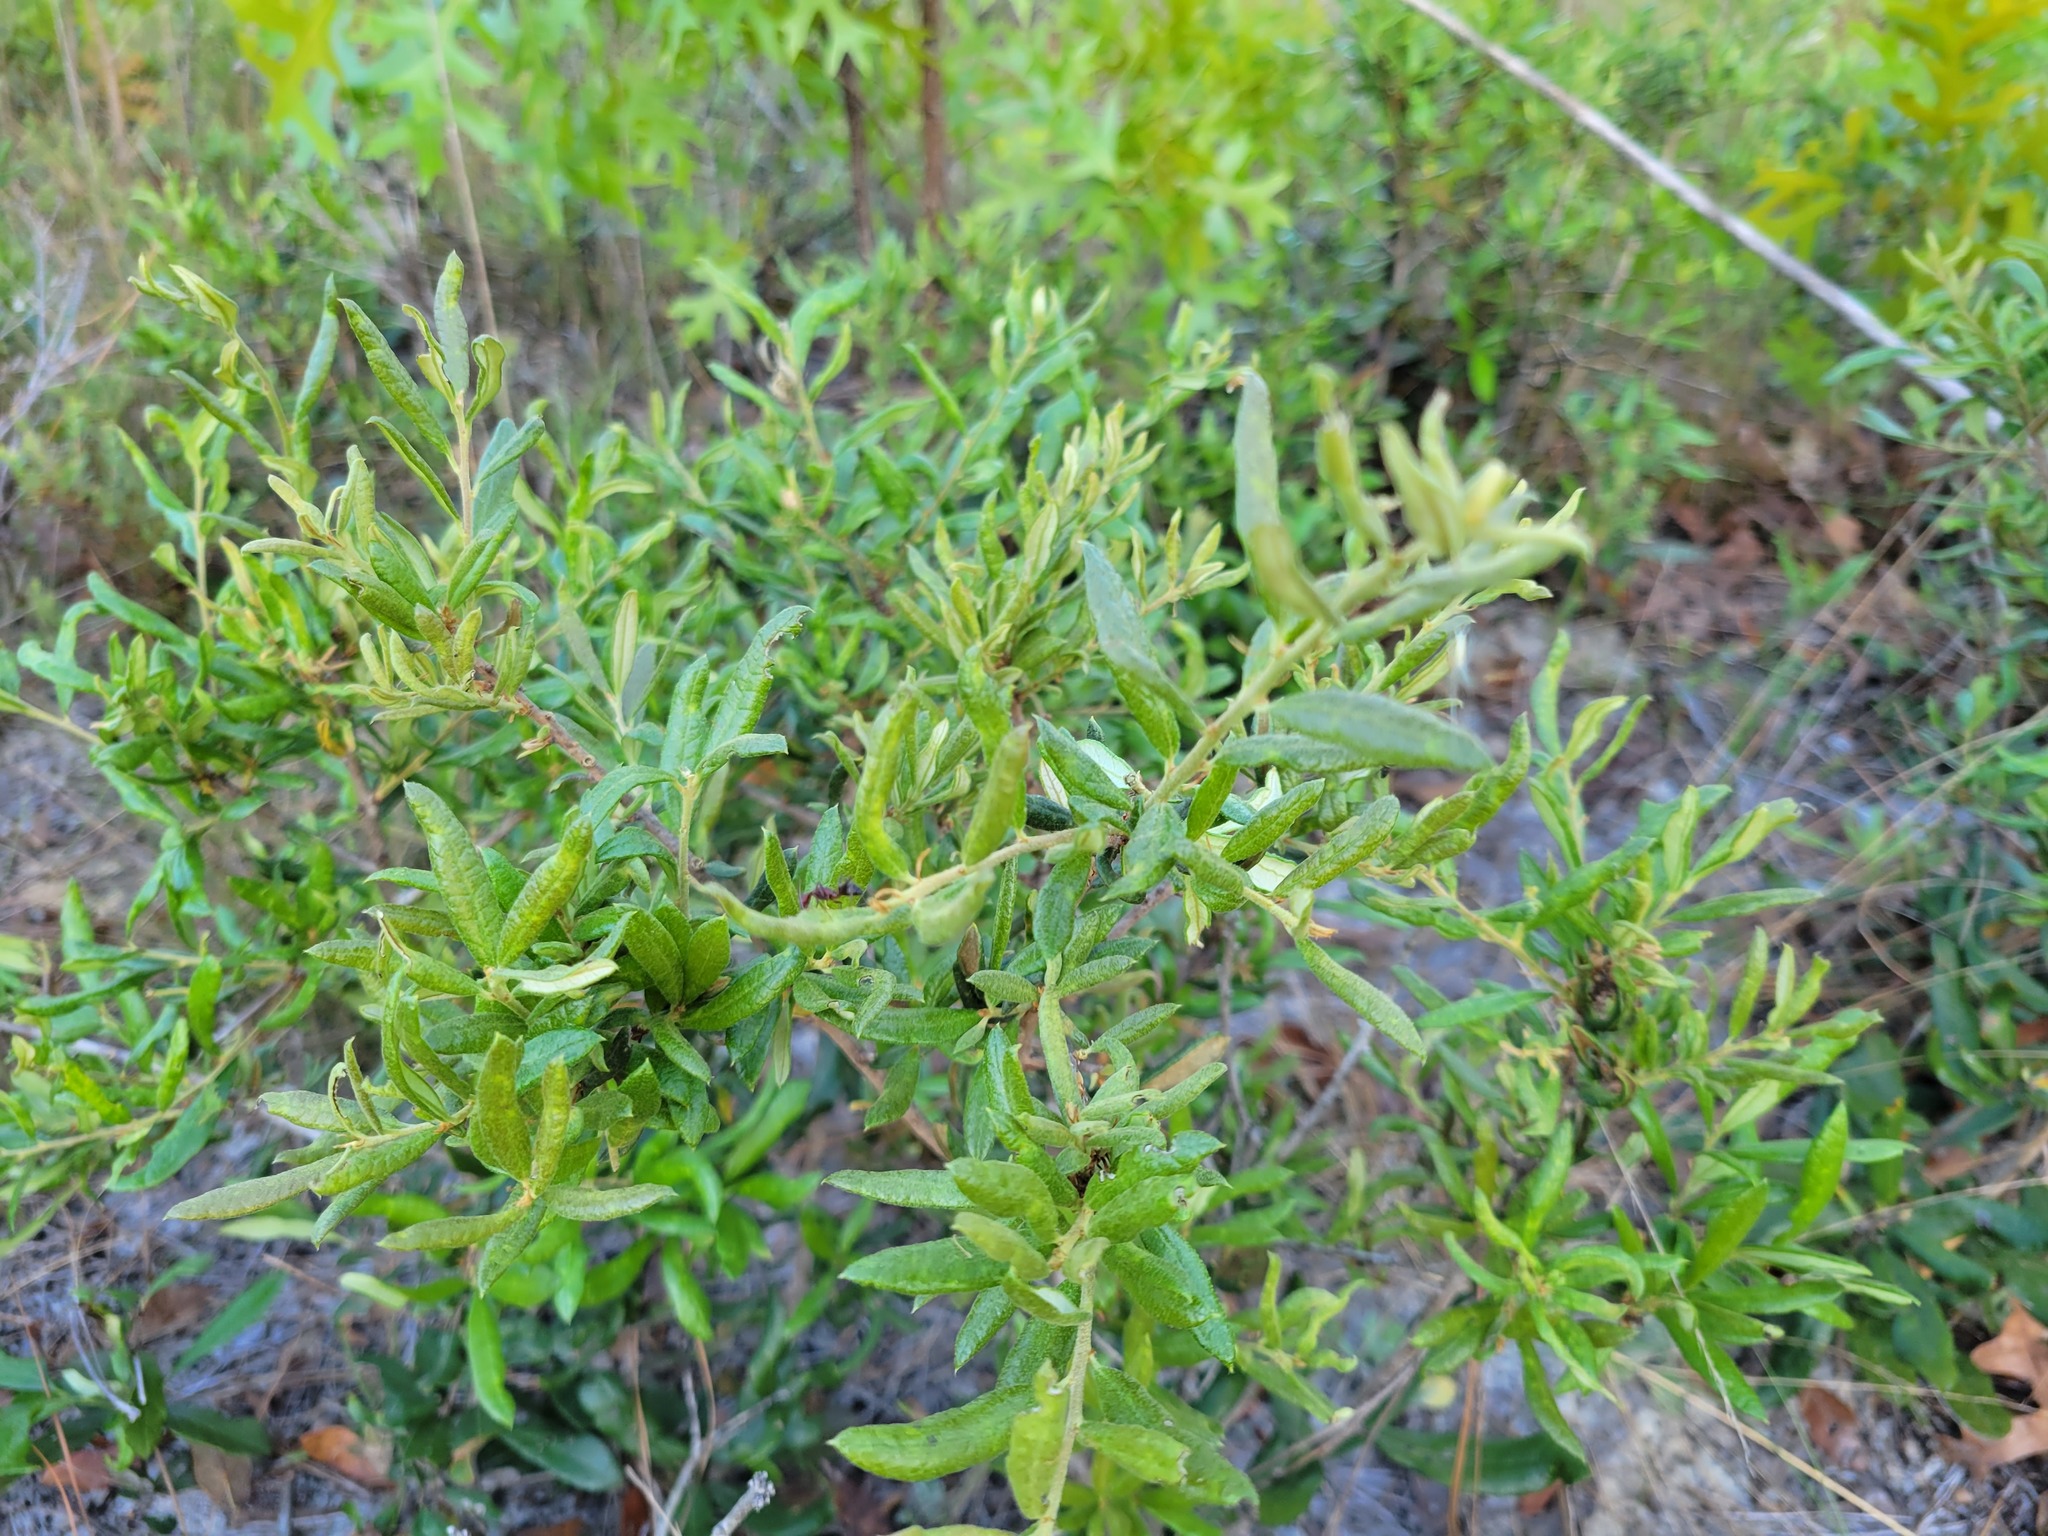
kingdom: Plantae
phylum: Tracheophyta
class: Magnoliopsida
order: Fagales
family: Fagaceae
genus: Quercus
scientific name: Quercus geminata
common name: Sand live oak
